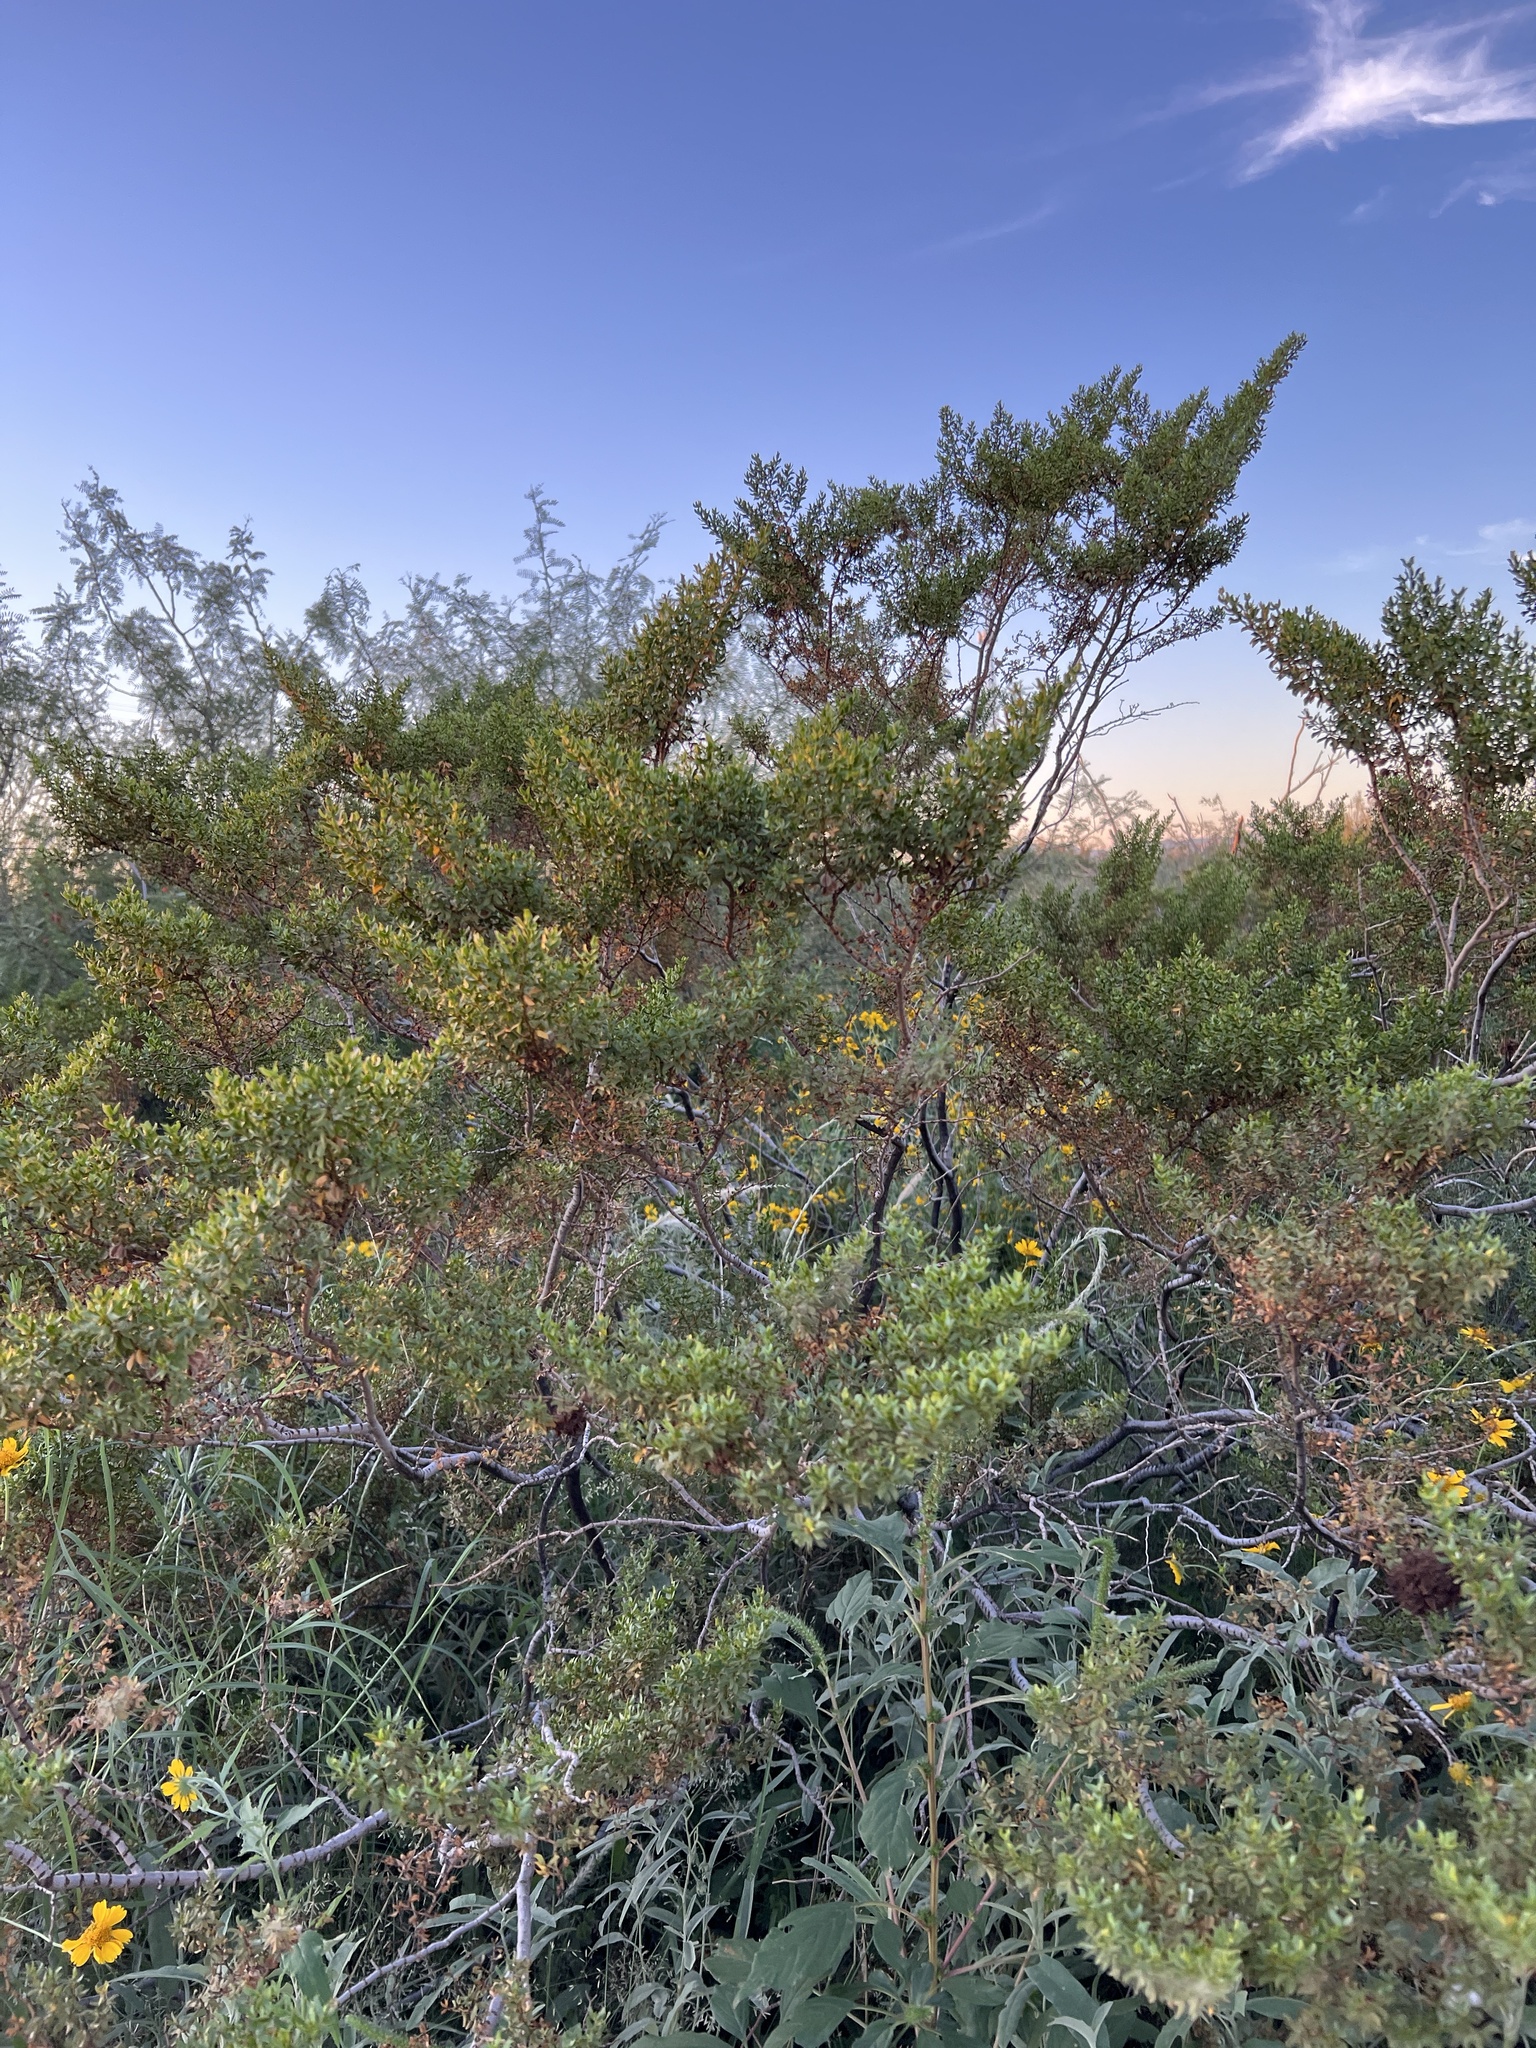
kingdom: Plantae
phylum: Tracheophyta
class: Magnoliopsida
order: Zygophyllales
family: Zygophyllaceae
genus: Larrea
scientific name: Larrea tridentata
